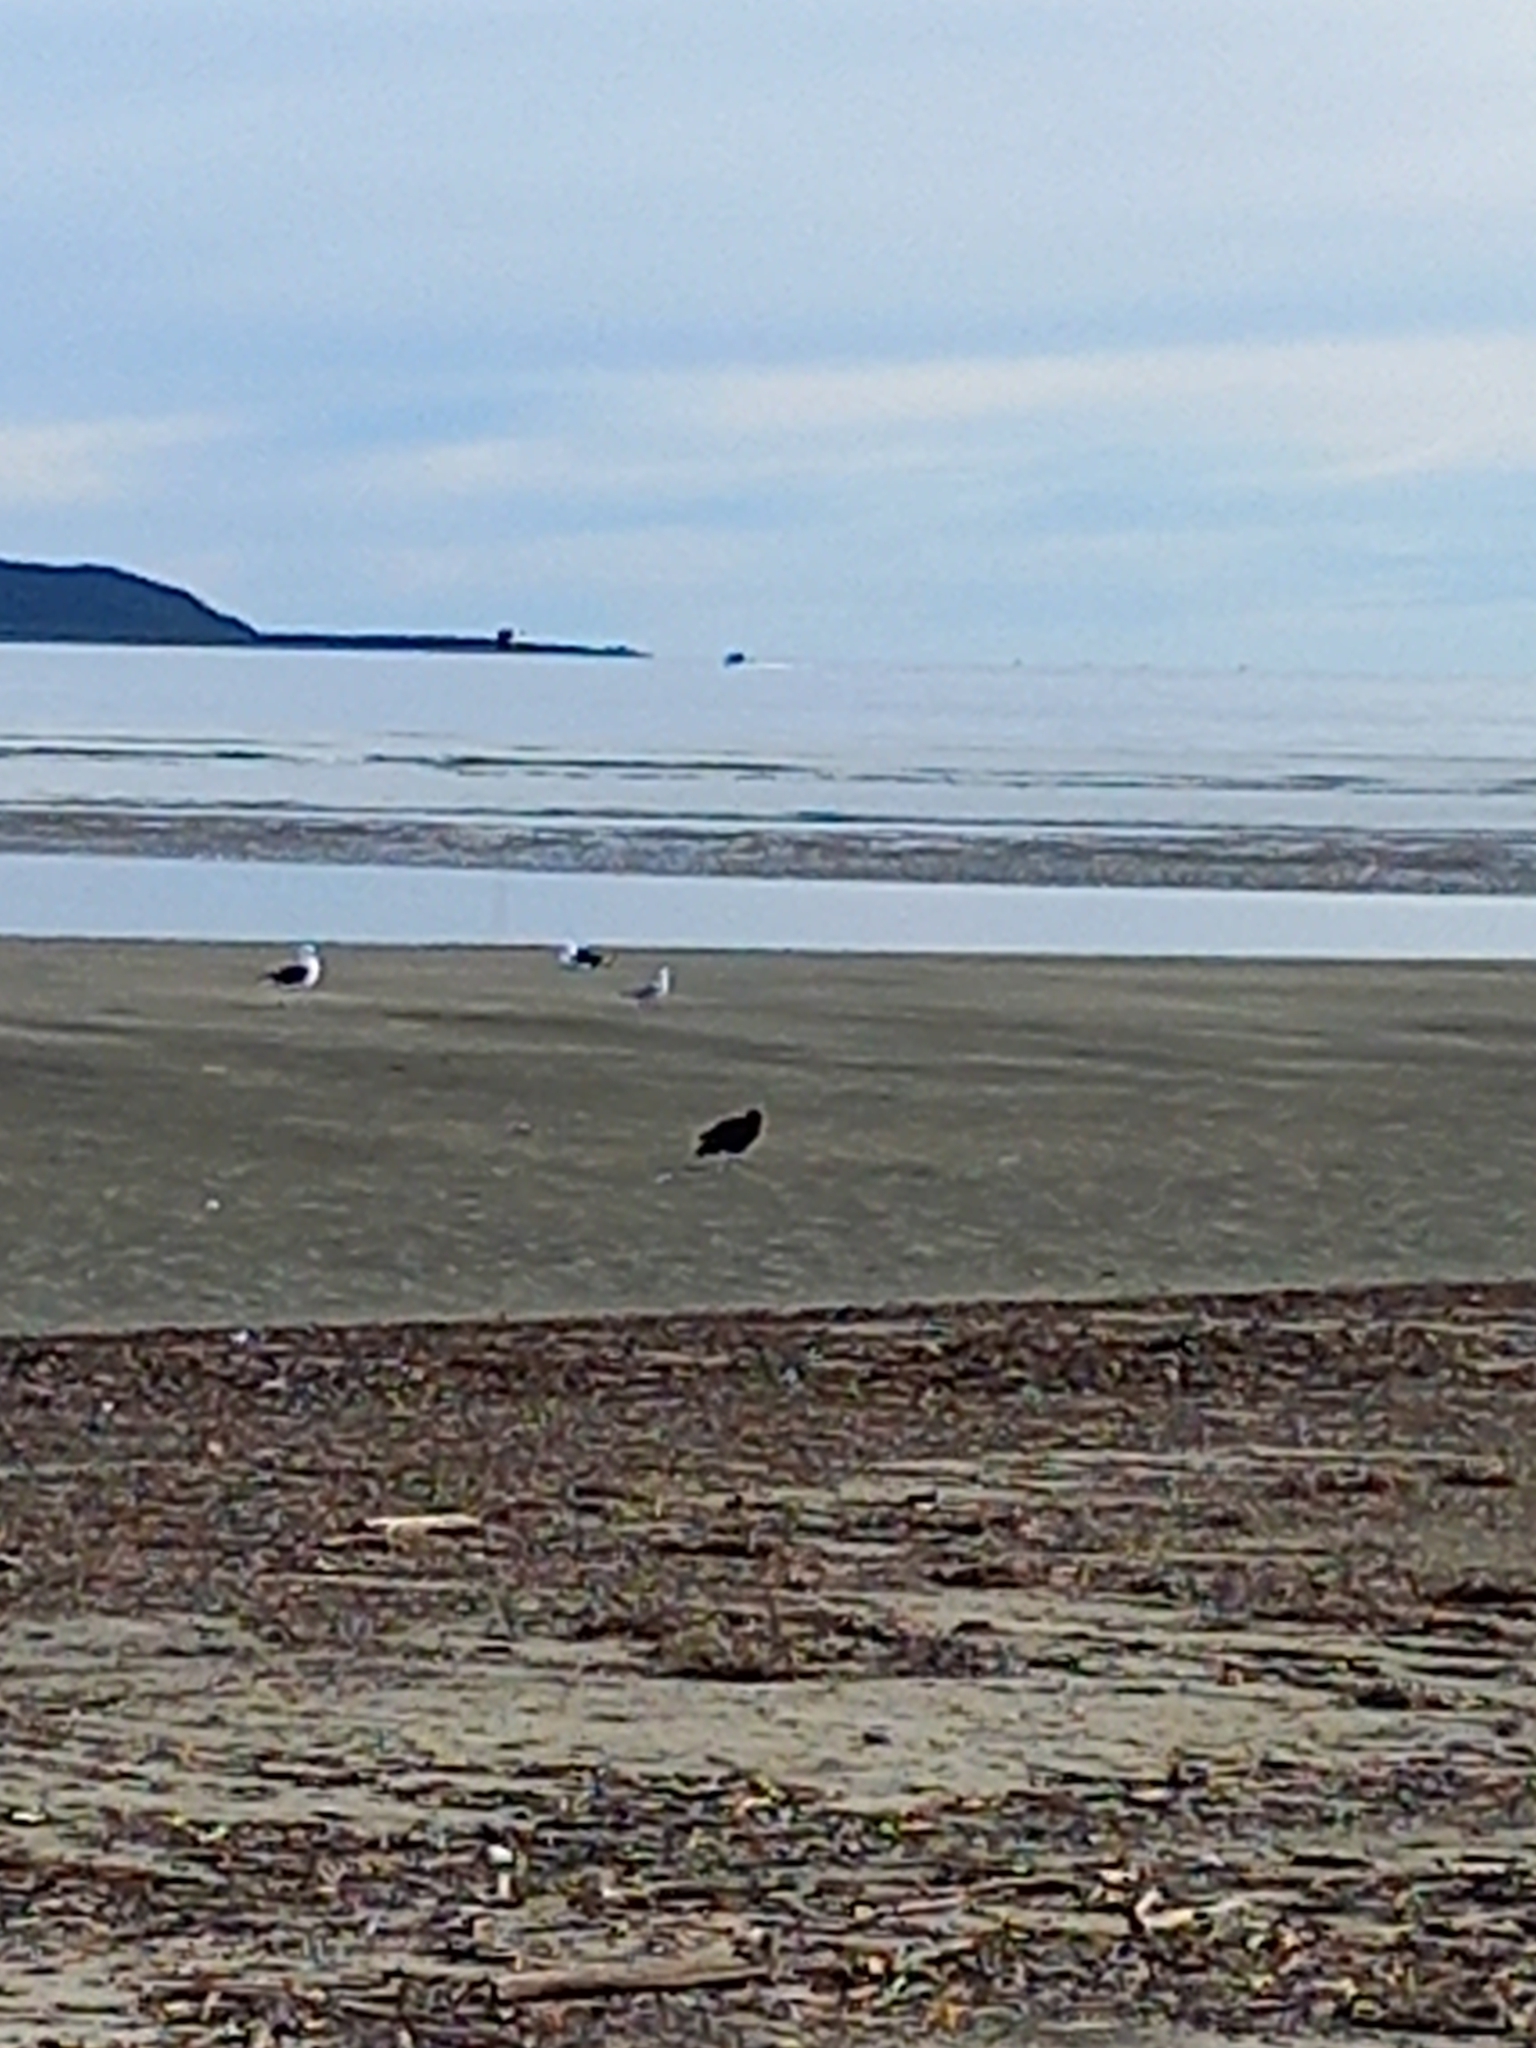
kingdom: Animalia
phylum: Chordata
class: Aves
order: Charadriiformes
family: Haematopodidae
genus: Haematopus
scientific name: Haematopus unicolor
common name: Variable oystercatcher
